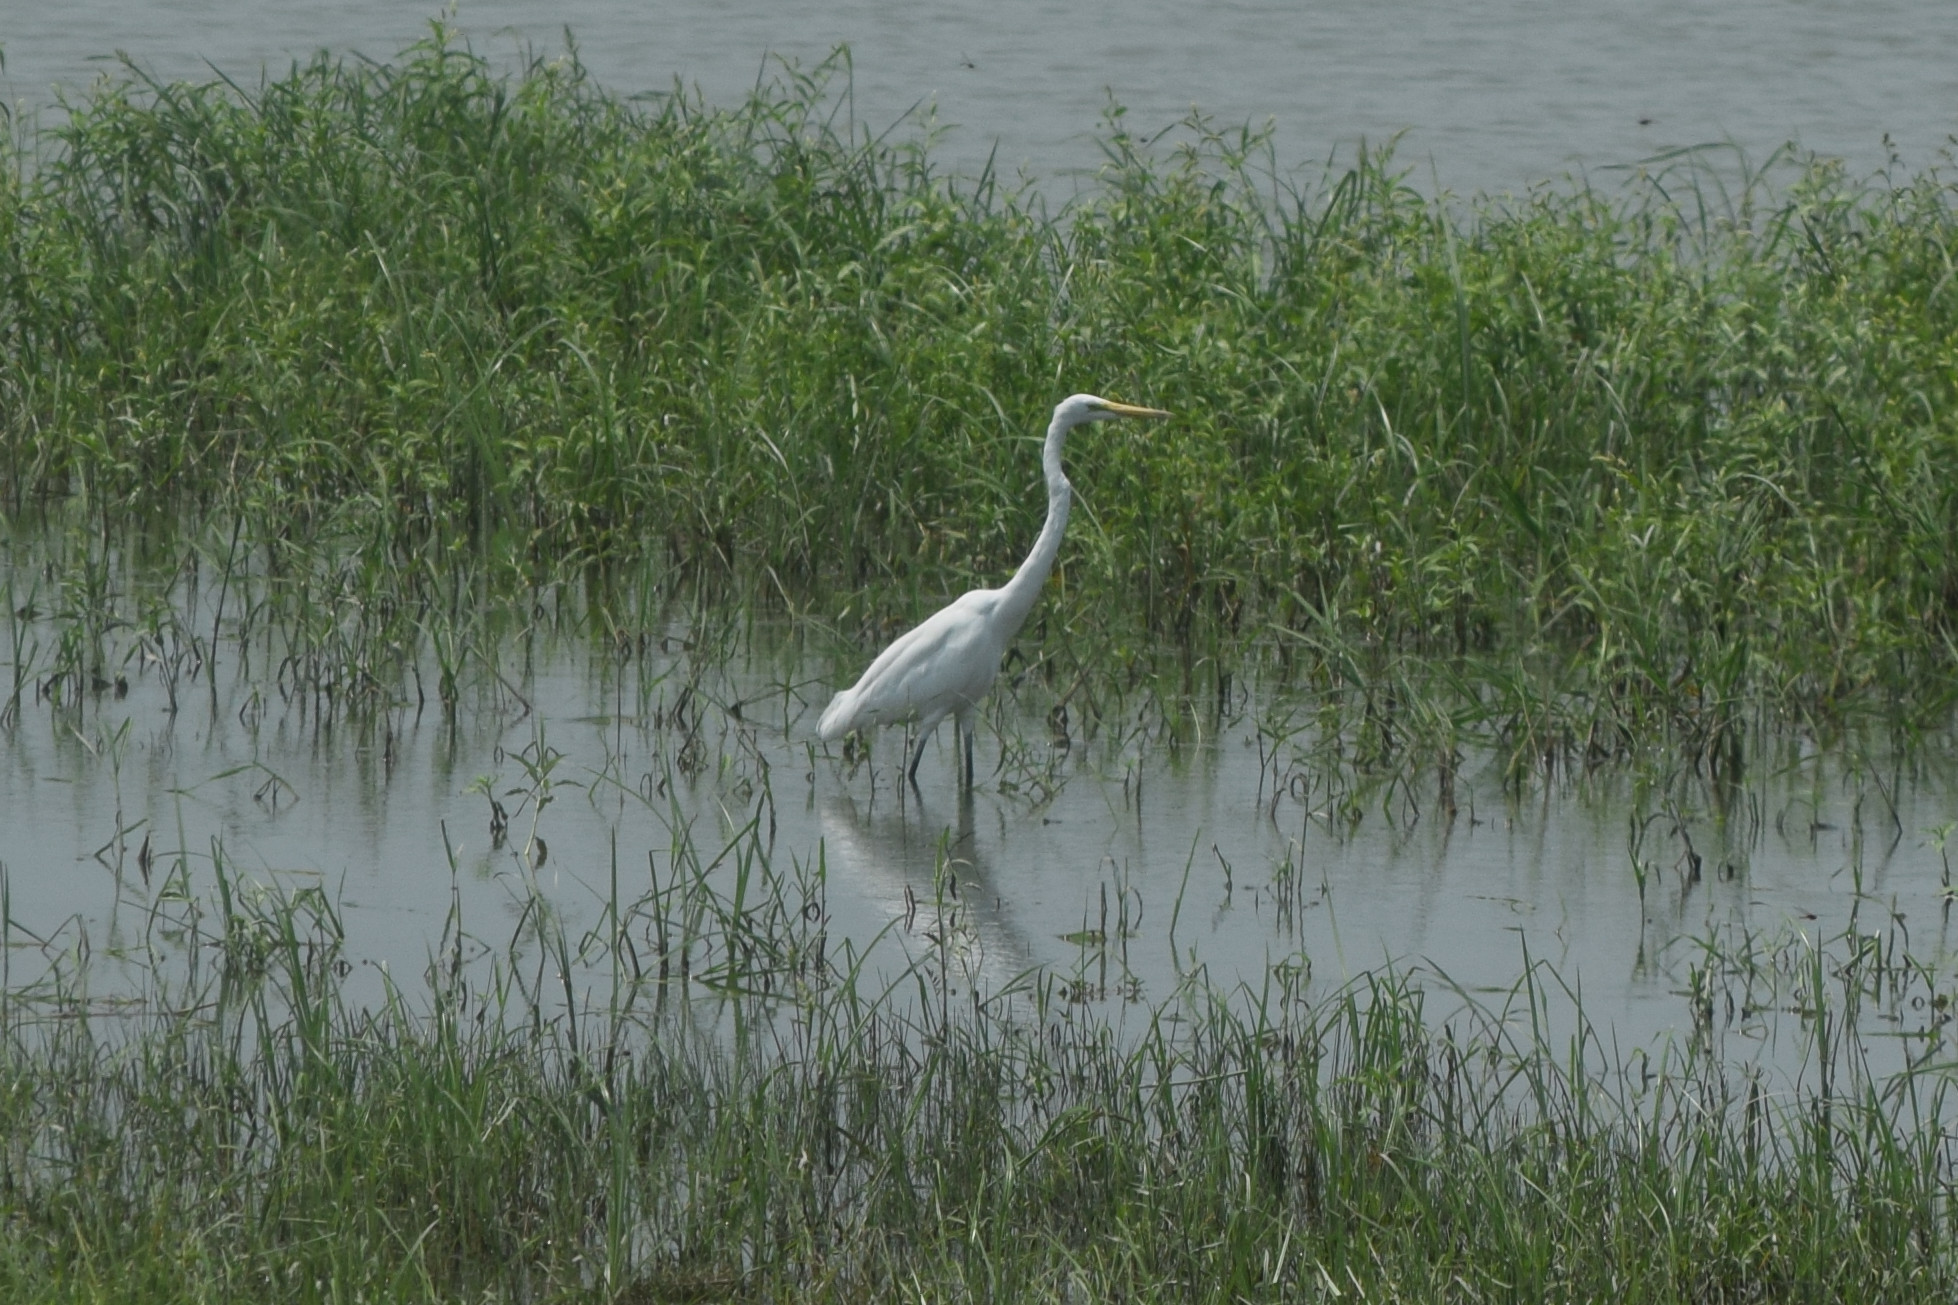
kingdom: Animalia
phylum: Chordata
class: Aves
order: Pelecaniformes
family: Ardeidae
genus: Ardea
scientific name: Ardea alba
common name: Great egret
